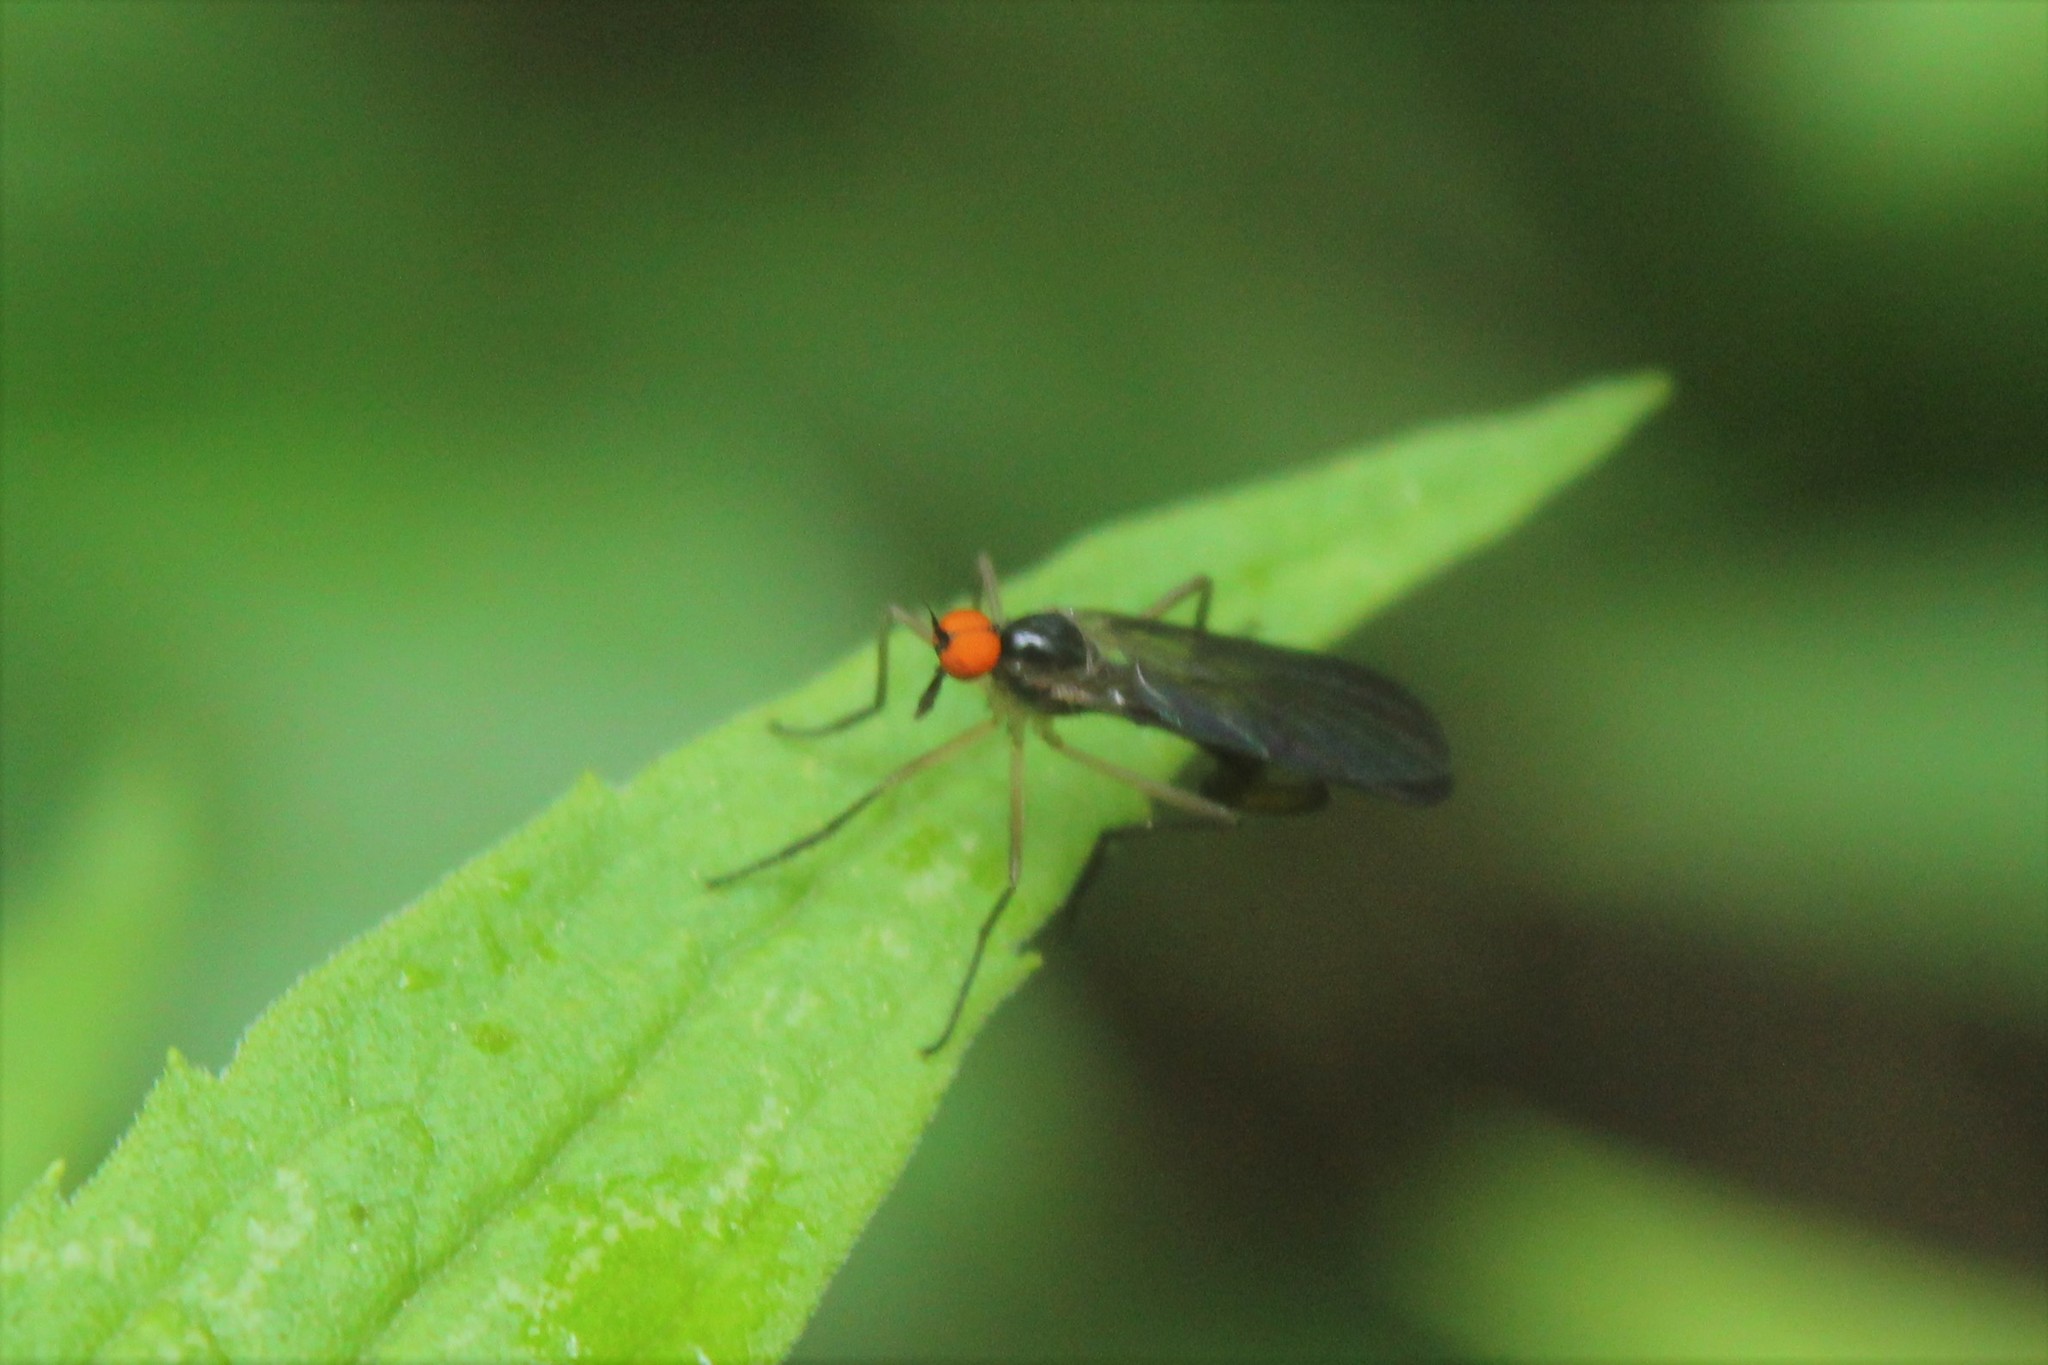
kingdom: Animalia
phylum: Arthropoda
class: Insecta
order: Diptera
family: Empididae
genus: Rhamphomyia
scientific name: Rhamphomyia longicauda
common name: Long-tailed dance fly
